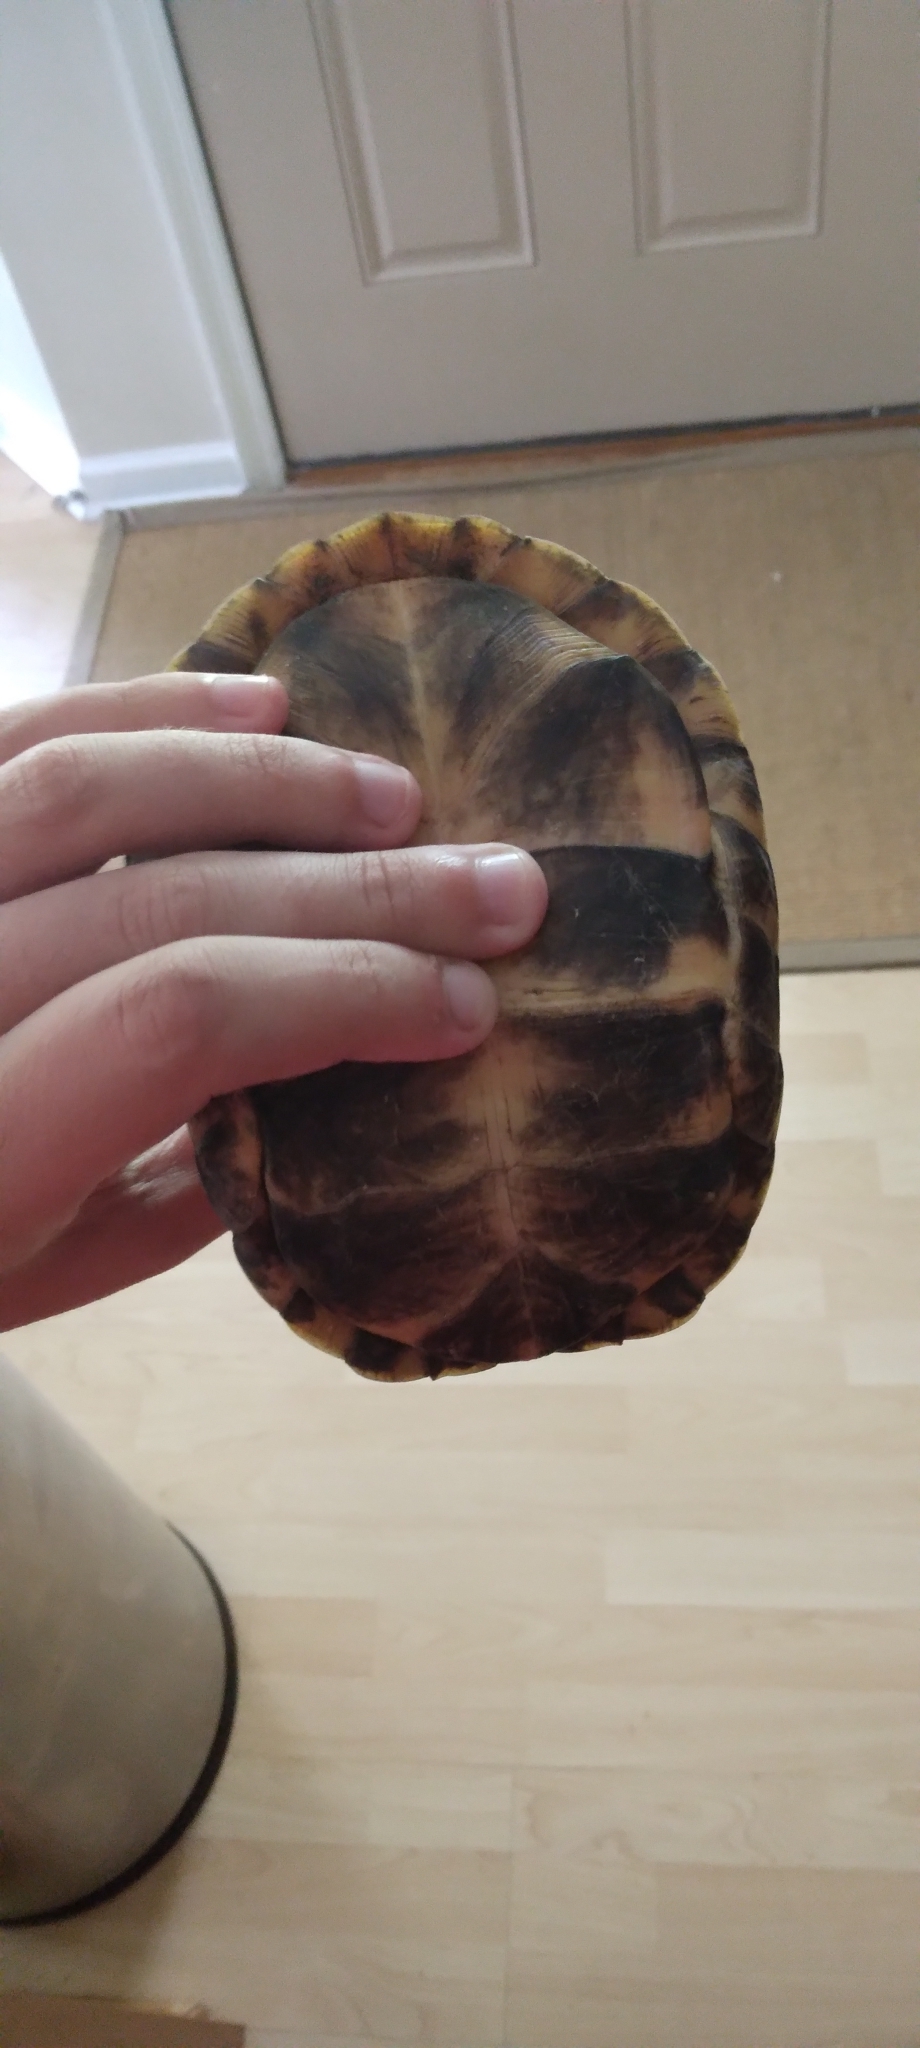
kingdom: Animalia
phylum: Chordata
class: Testudines
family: Emydidae
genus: Terrapene
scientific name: Terrapene carolina
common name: Common box turtle
